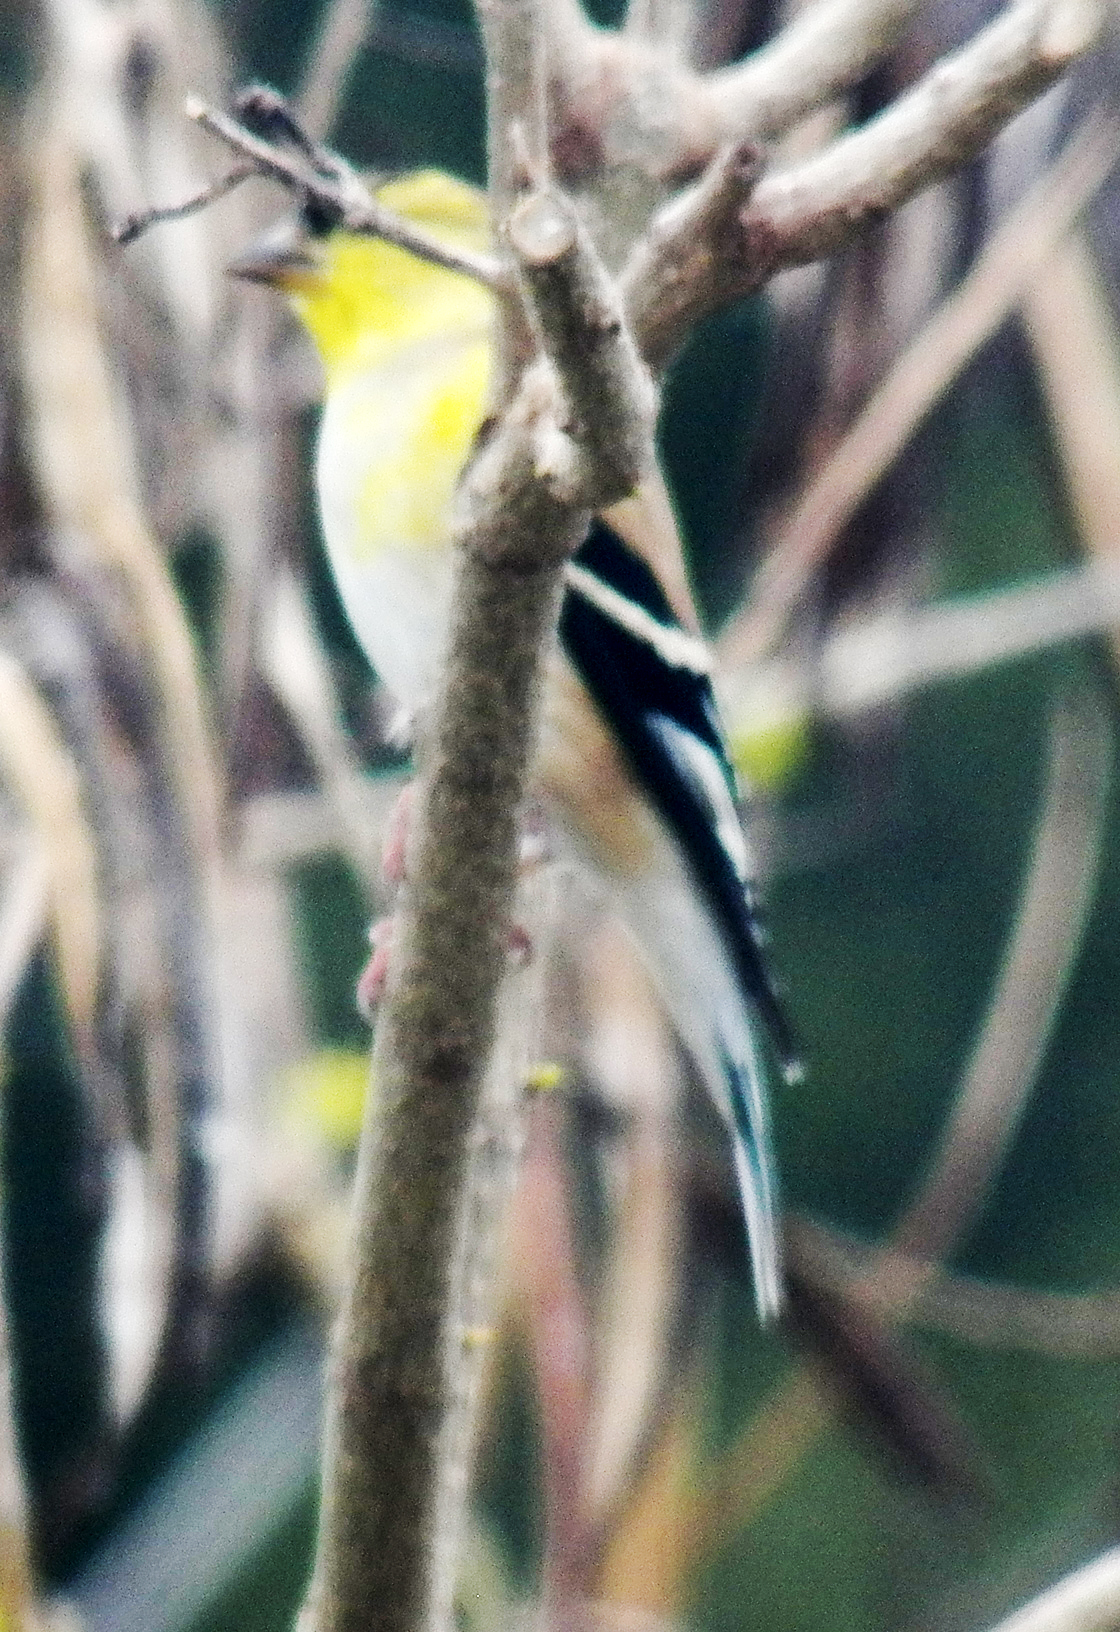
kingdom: Animalia
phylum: Chordata
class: Aves
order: Passeriformes
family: Fringillidae
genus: Spinus
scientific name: Spinus tristis
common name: American goldfinch
